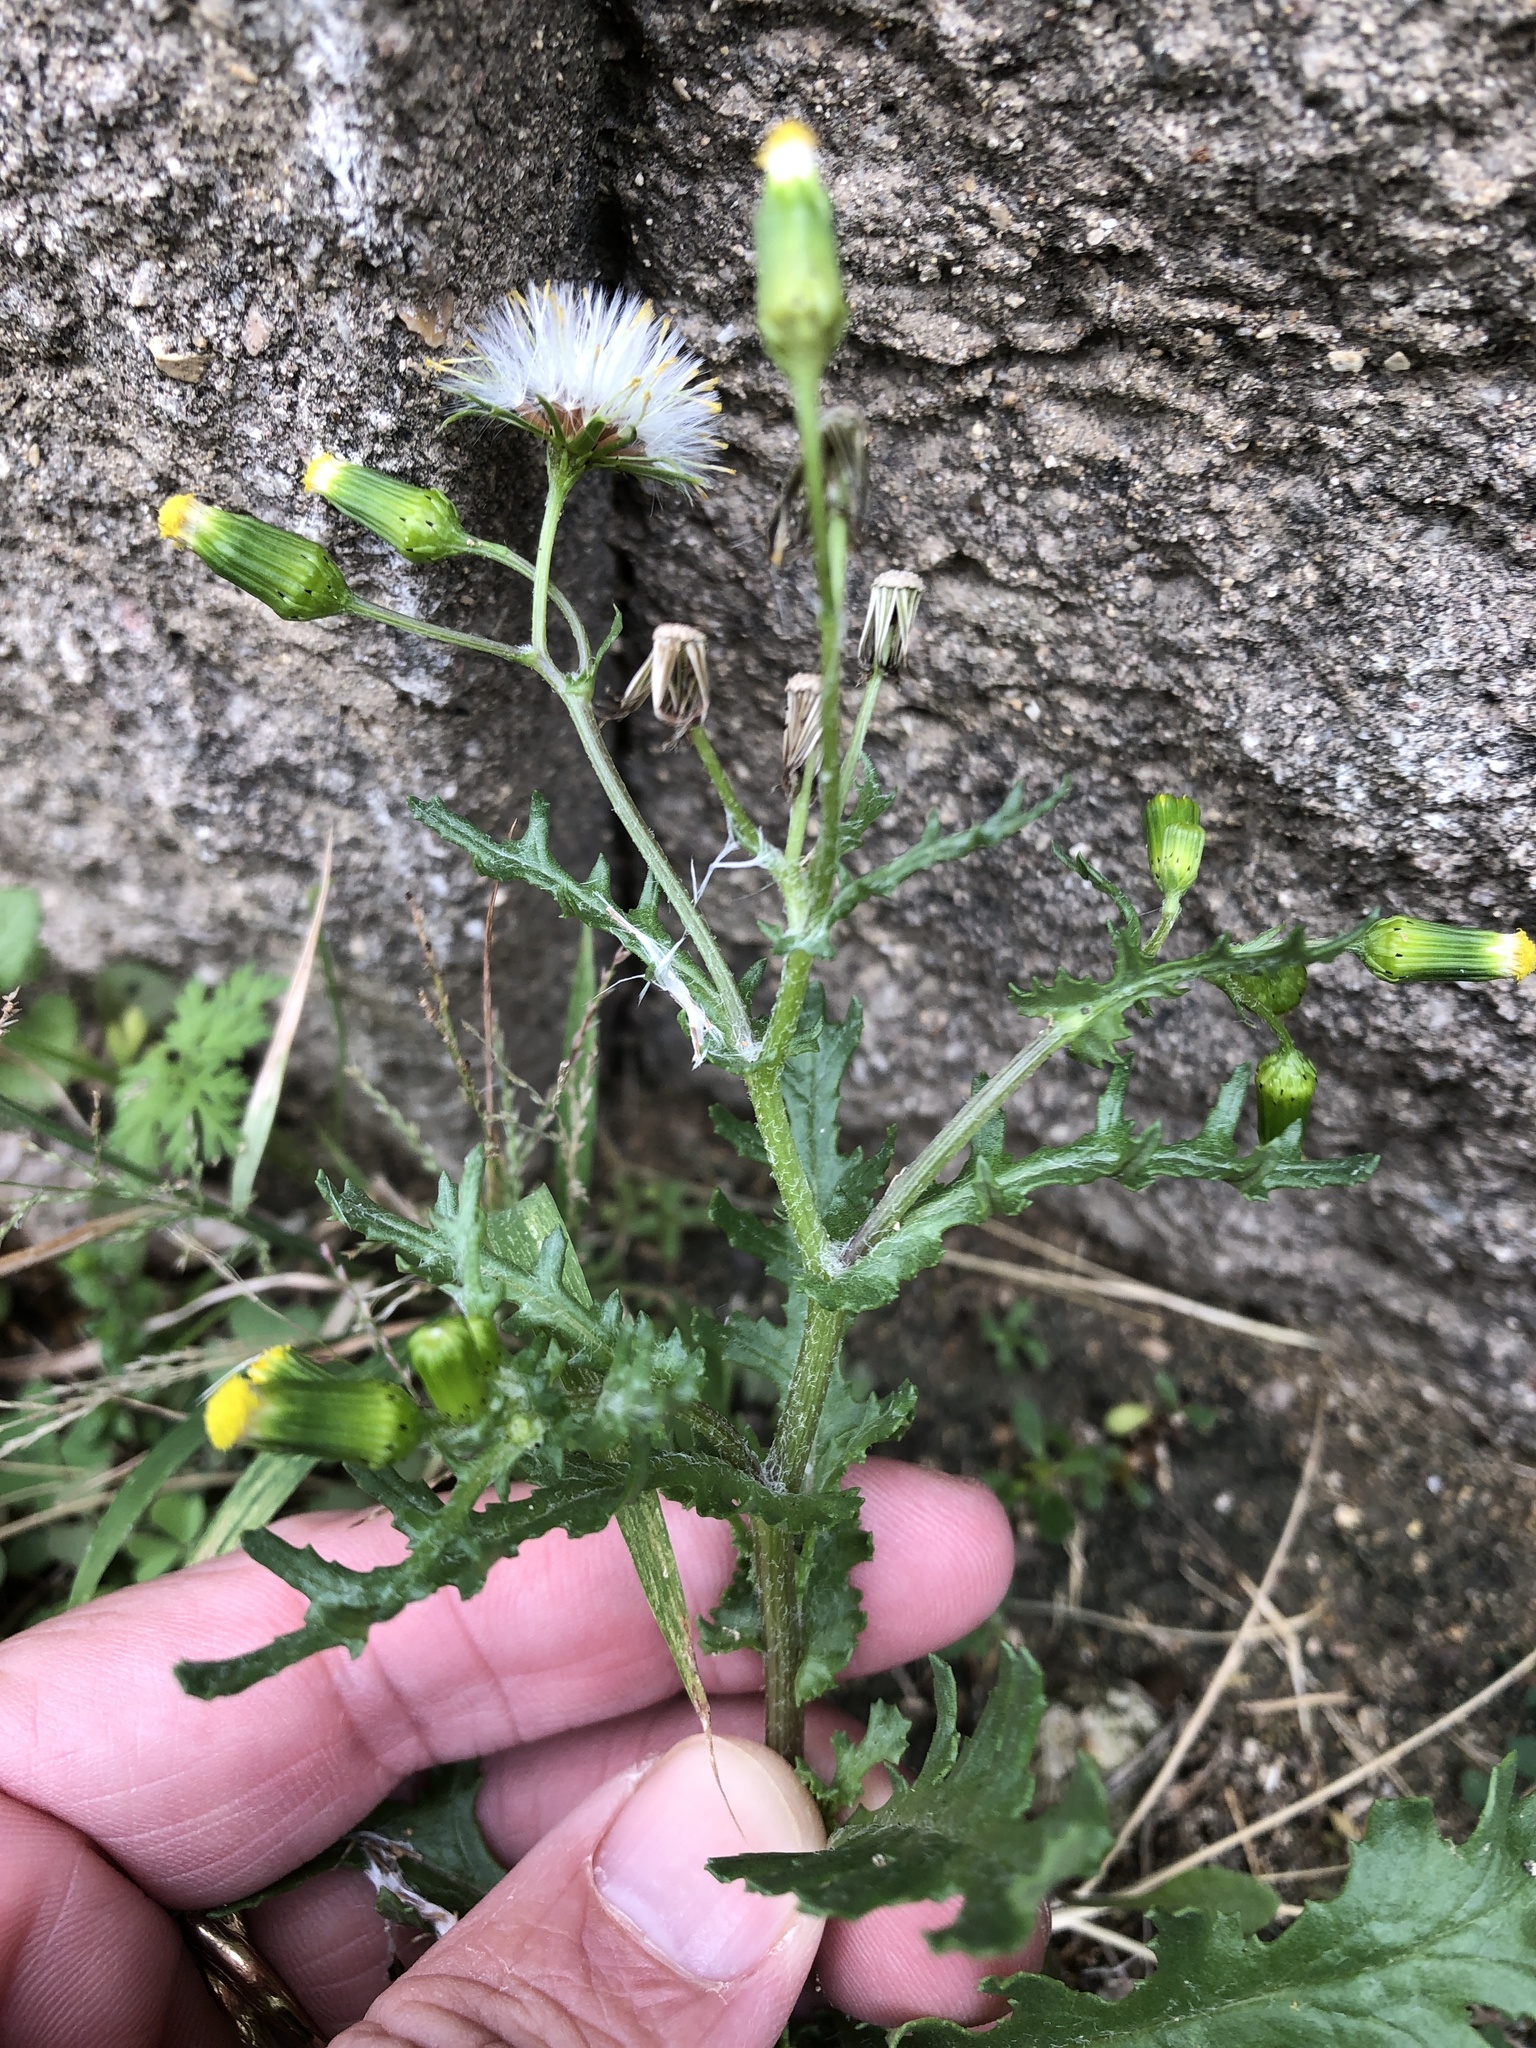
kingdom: Plantae
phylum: Tracheophyta
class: Magnoliopsida
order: Asterales
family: Asteraceae
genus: Senecio
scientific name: Senecio vulgaris
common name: Old-man-in-the-spring
